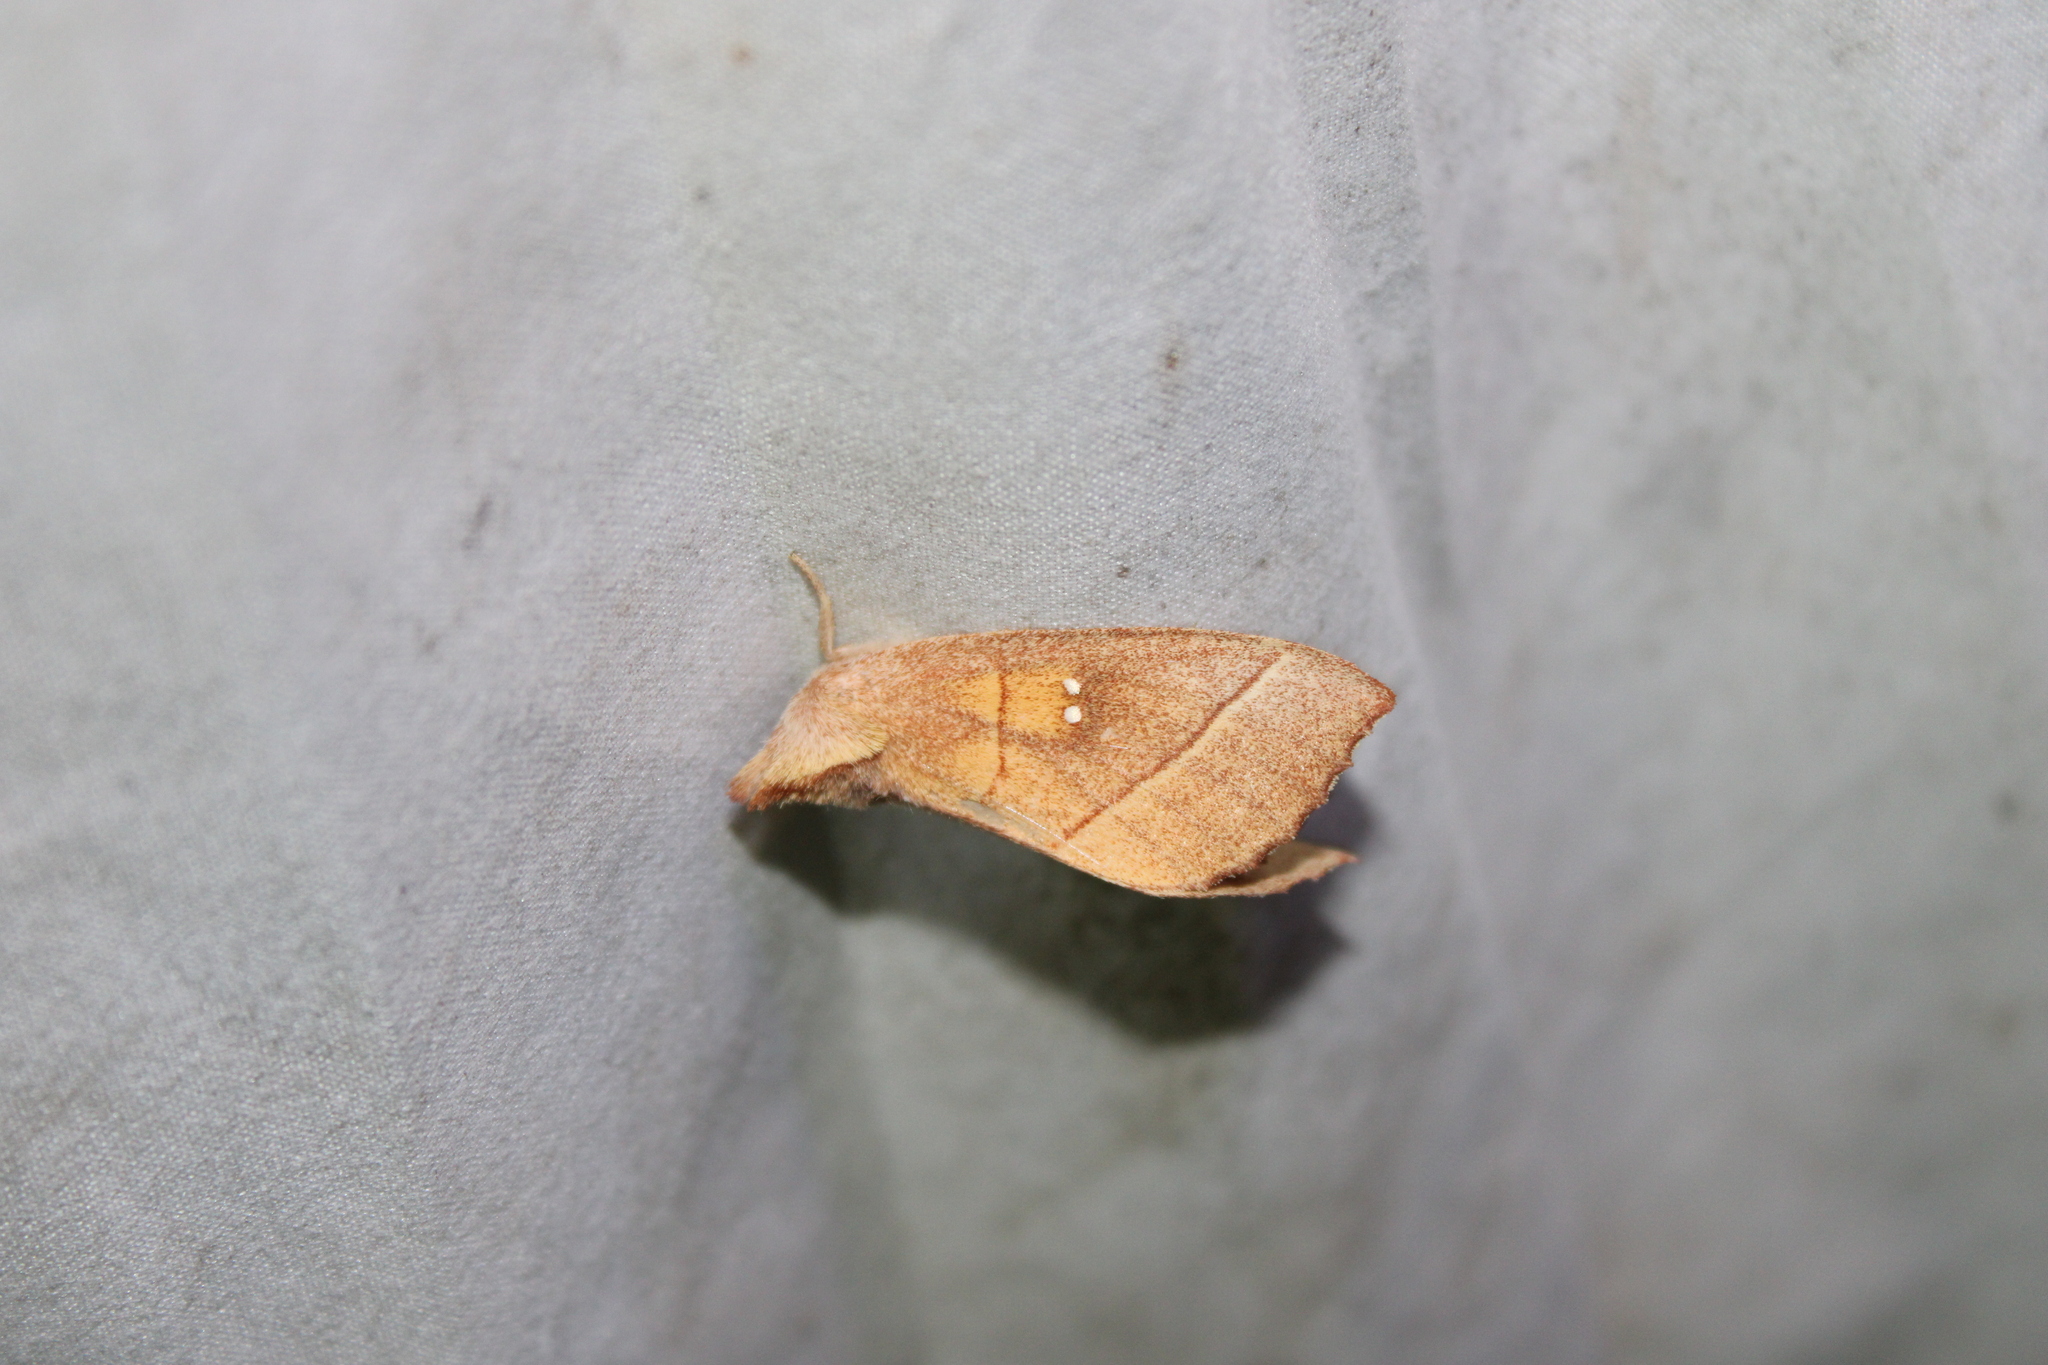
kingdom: Animalia
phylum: Arthropoda
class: Insecta
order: Lepidoptera
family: Notodontidae
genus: Nadata
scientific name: Nadata gibbosa
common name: White-dotted prominent
